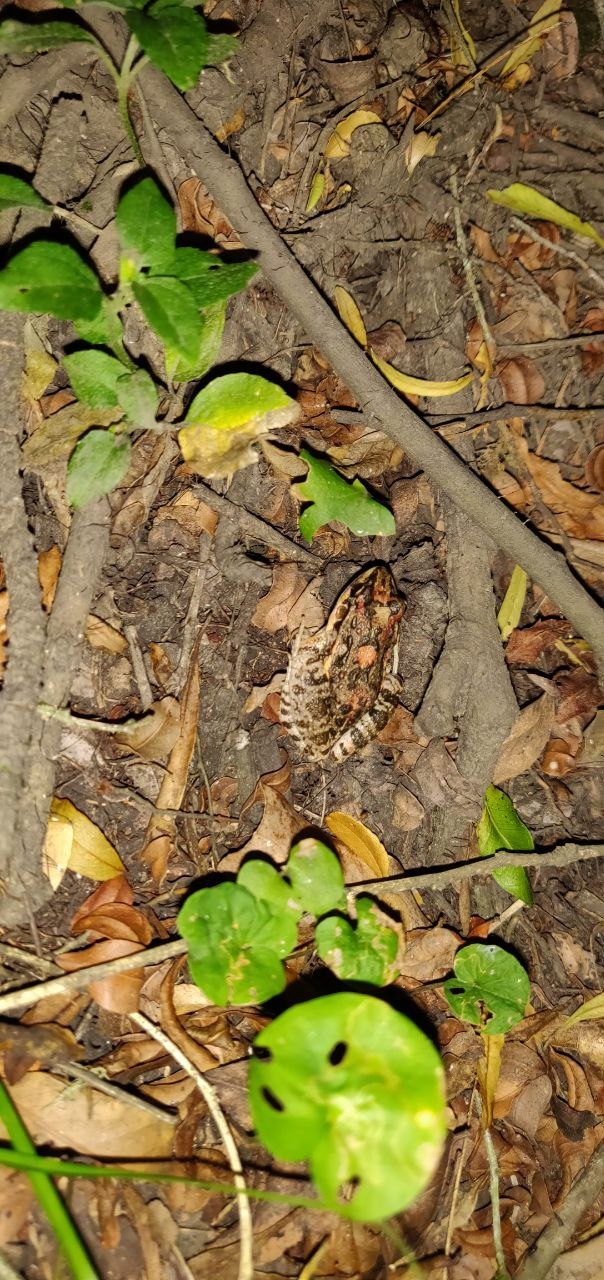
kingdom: Animalia
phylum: Chordata
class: Amphibia
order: Anura
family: Leptodactylidae
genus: Leptodactylus
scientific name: Leptodactylus latinasus
